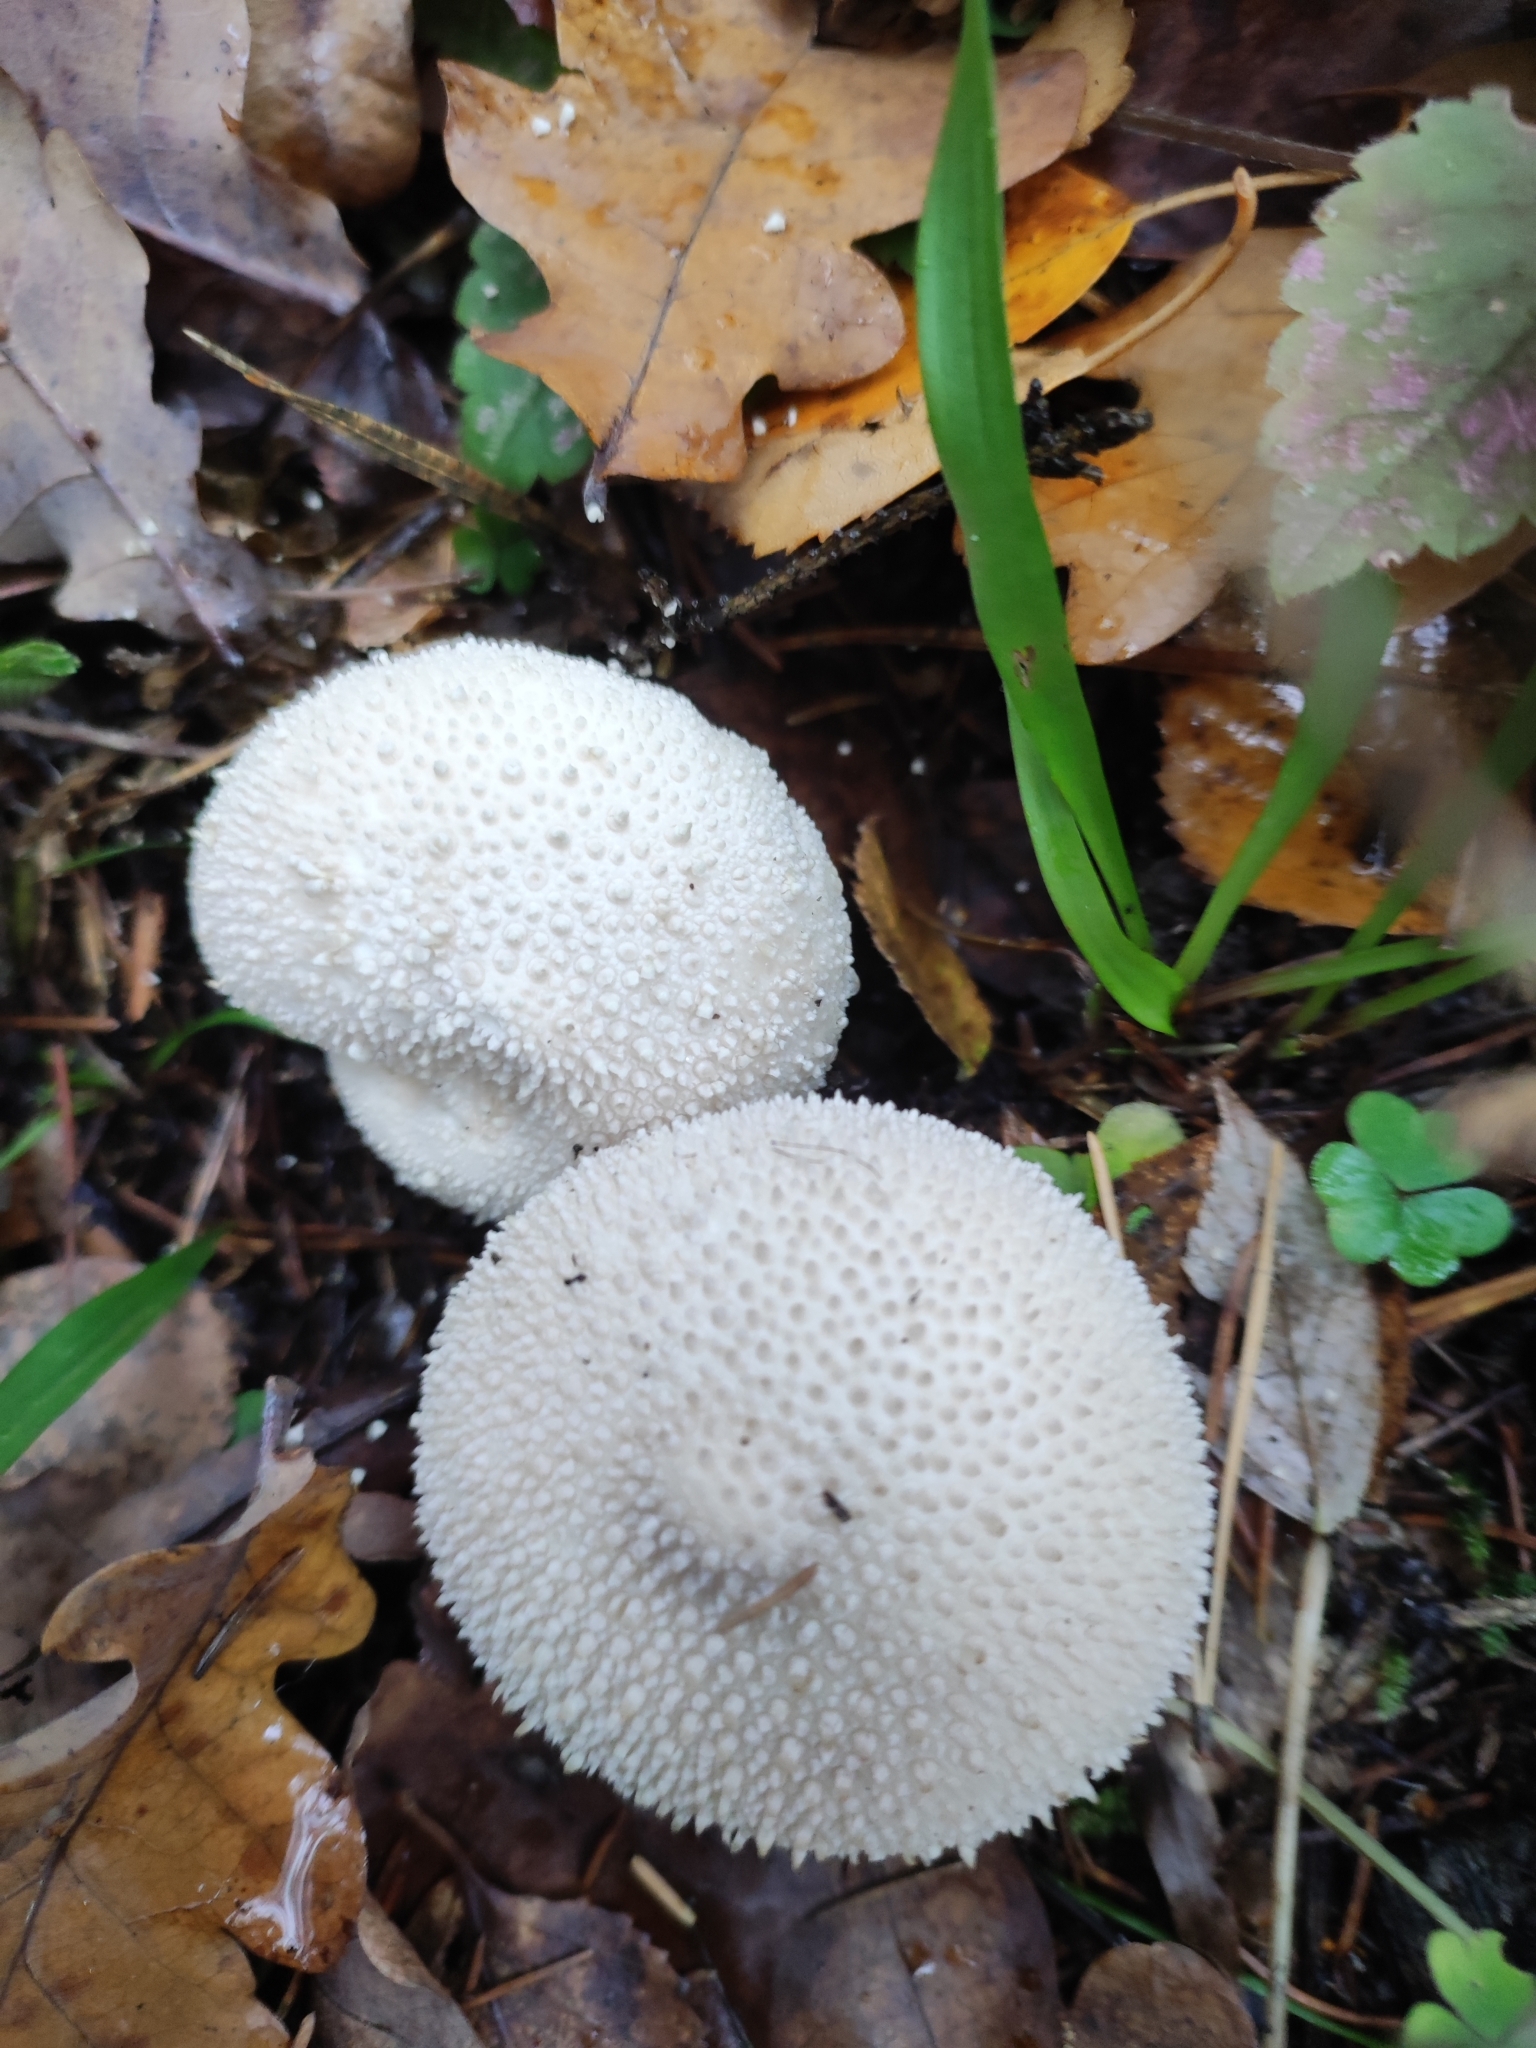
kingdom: Fungi
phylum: Basidiomycota
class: Agaricomycetes
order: Agaricales
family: Lycoperdaceae
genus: Lycoperdon
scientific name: Lycoperdon perlatum
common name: Common puffball
